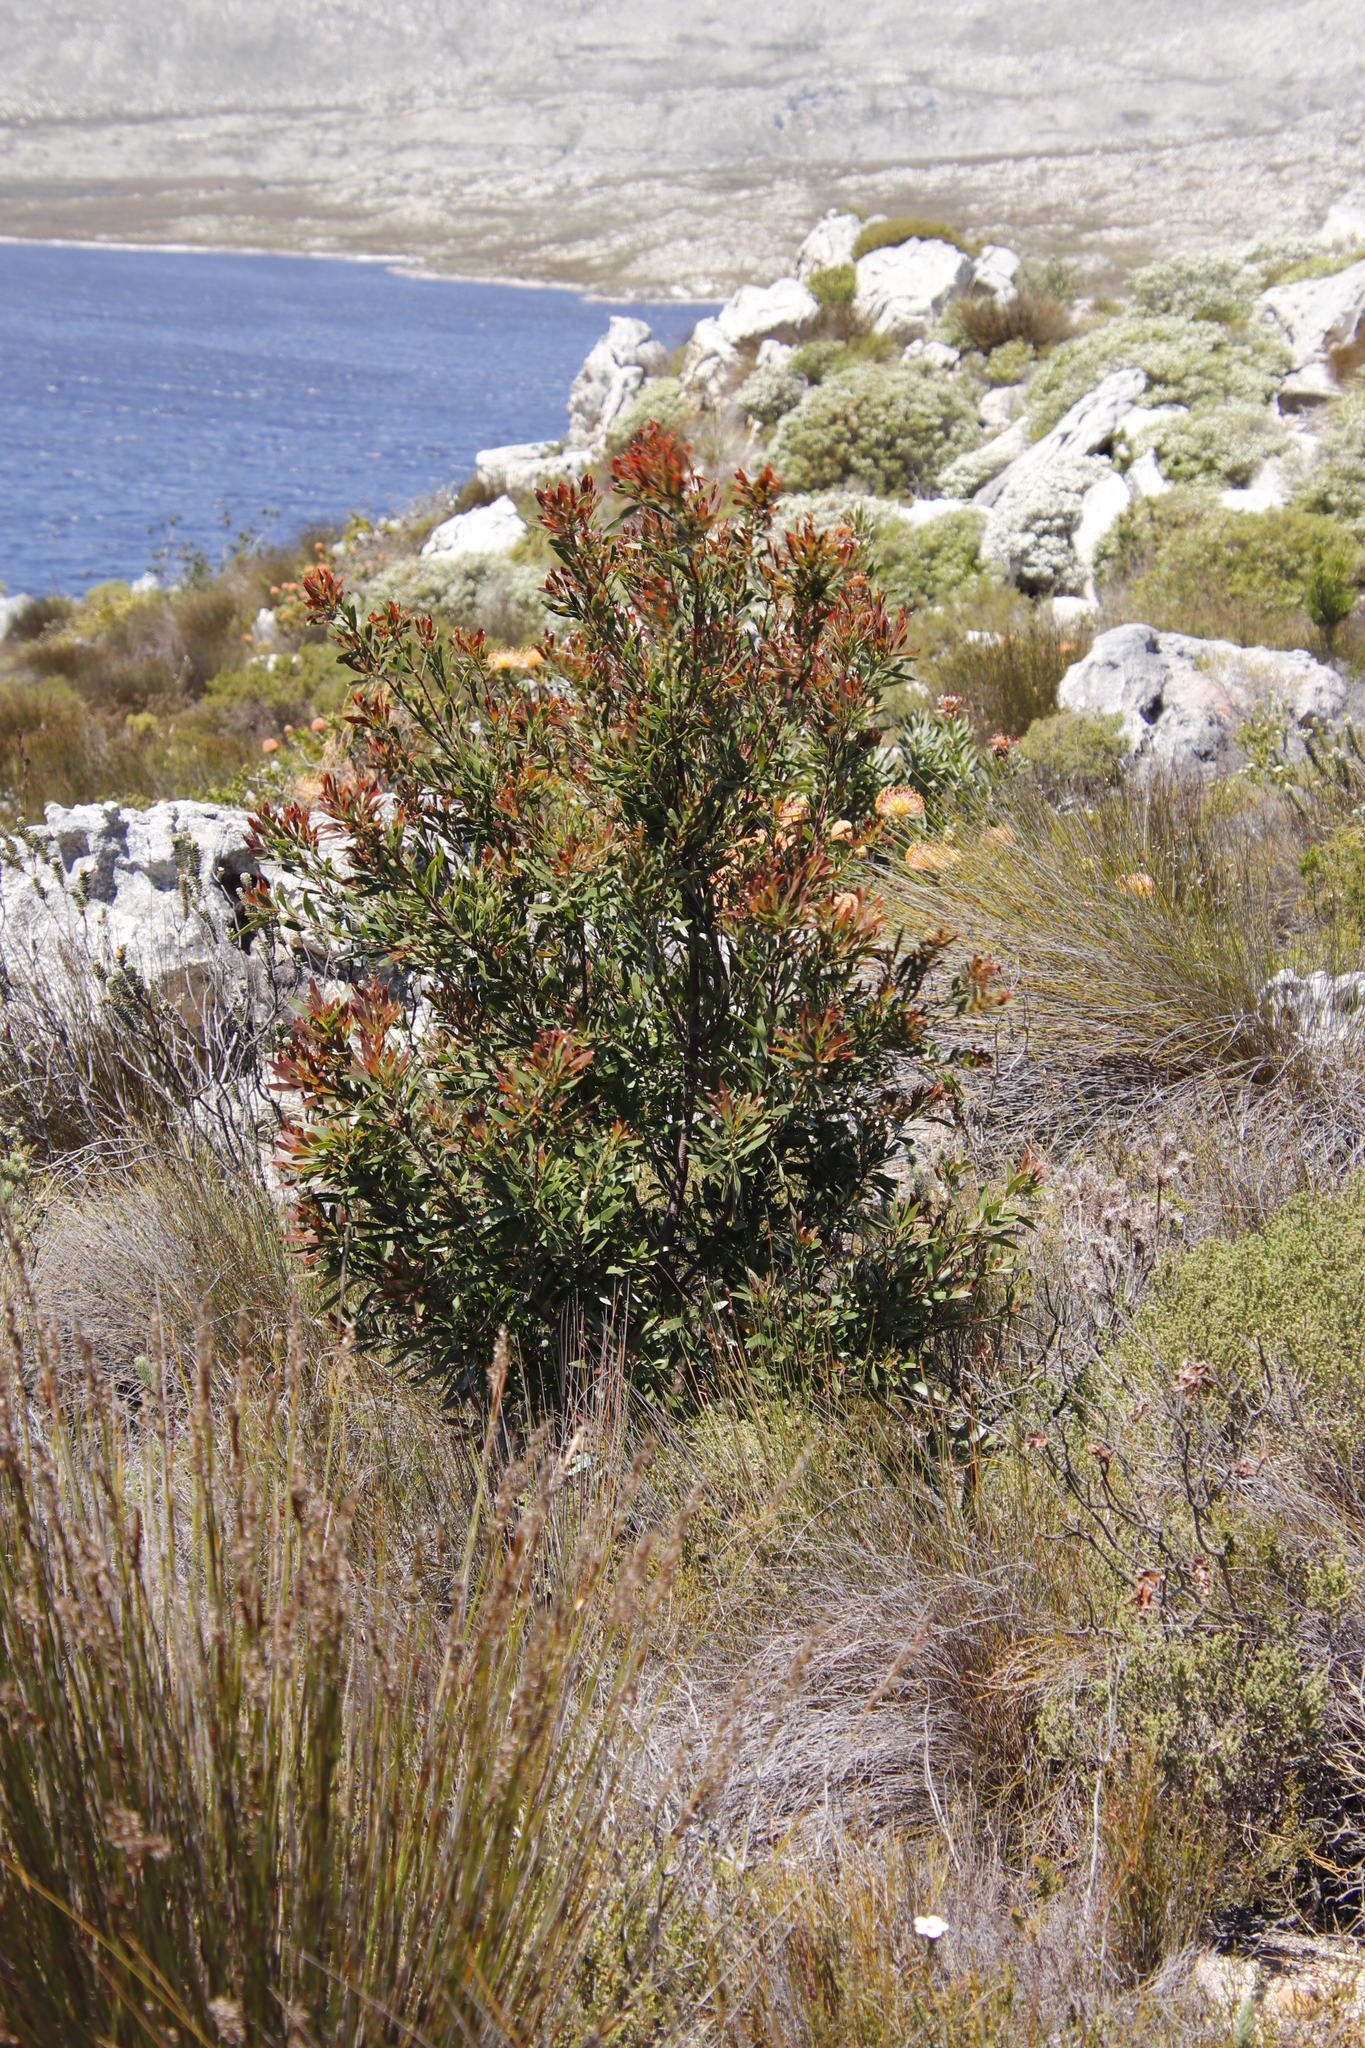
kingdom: Plantae
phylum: Tracheophyta
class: Magnoliopsida
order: Proteales
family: Proteaceae
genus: Hakea
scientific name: Hakea salicifolia
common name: Willow hakea
